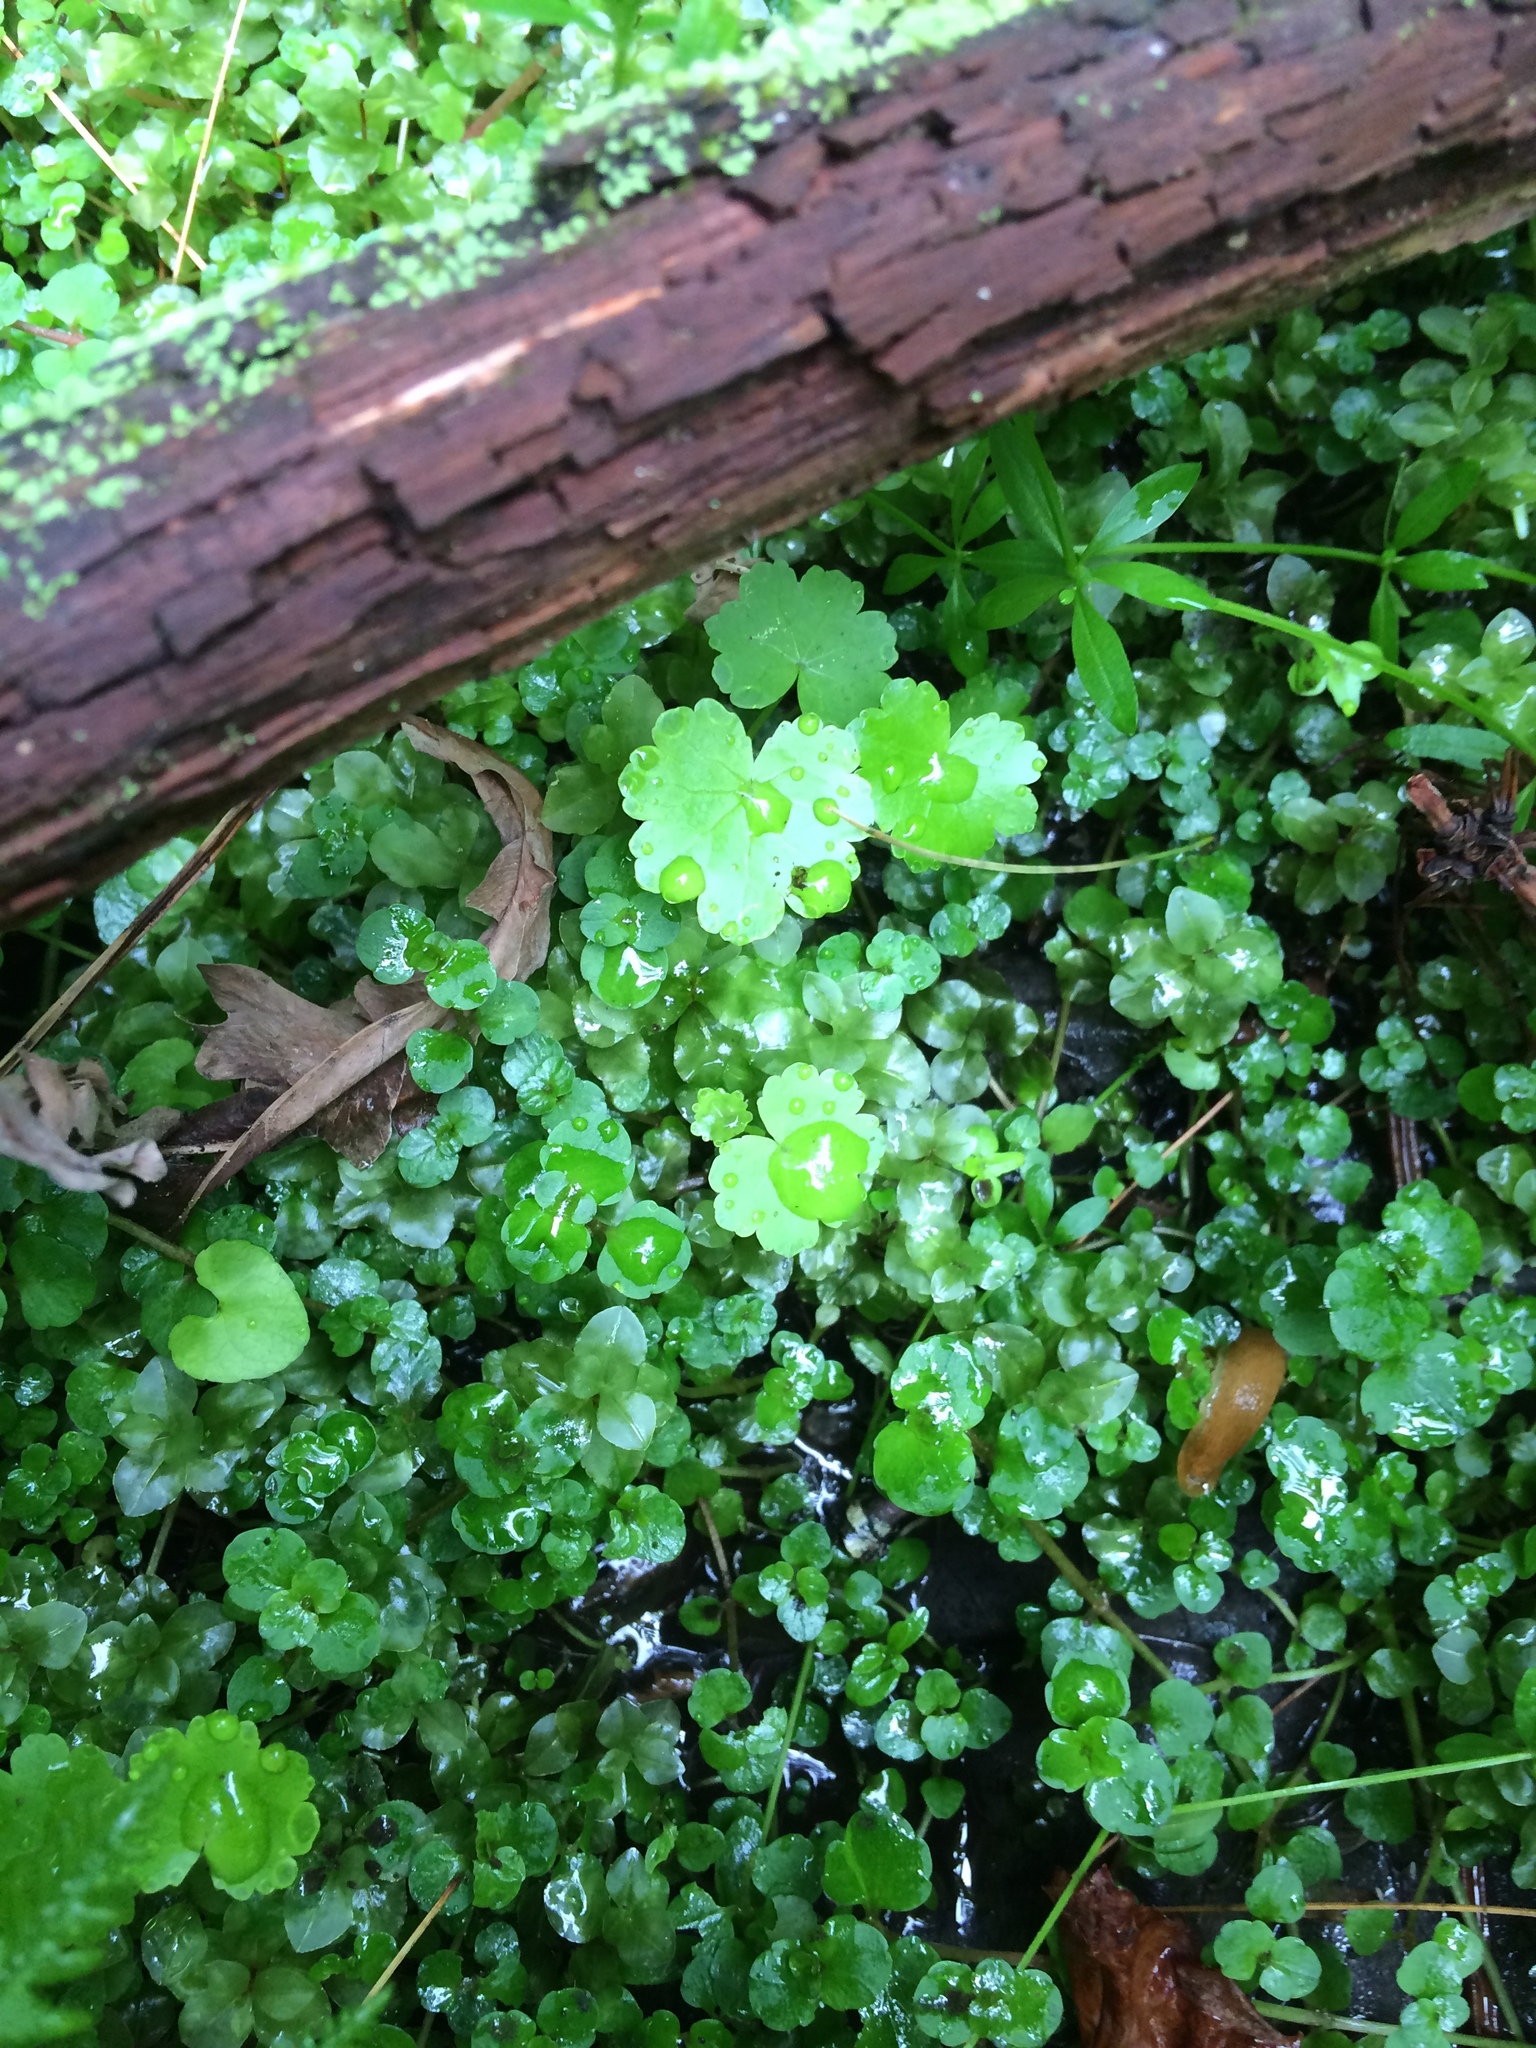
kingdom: Plantae
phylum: Tracheophyta
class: Magnoliopsida
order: Apiales
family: Araliaceae
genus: Hydrocotyle
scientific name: Hydrocotyle americana
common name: American water-pennywort
